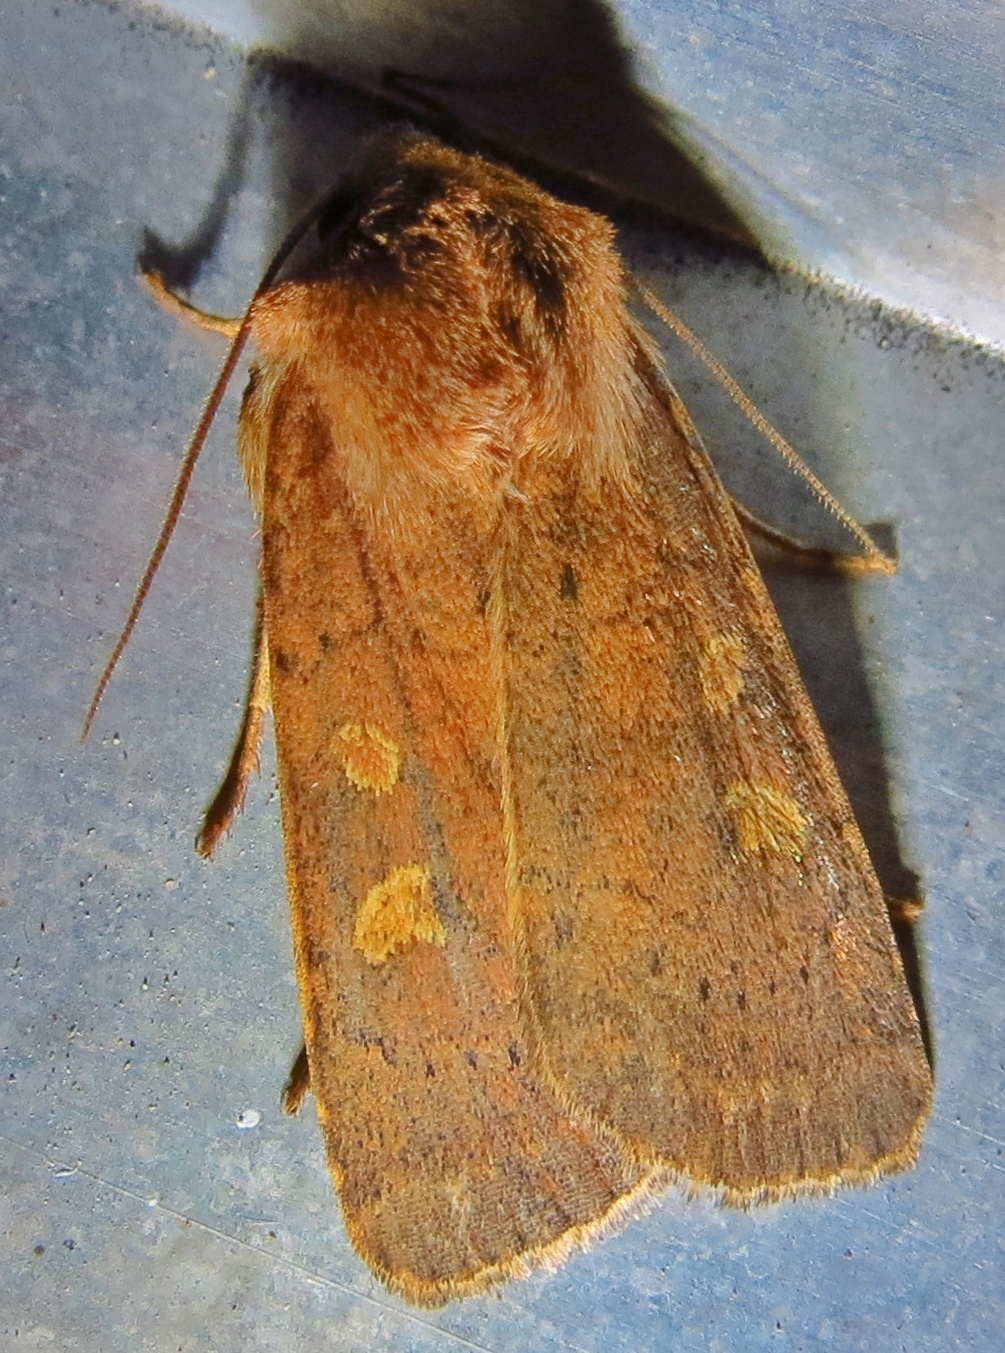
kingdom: Animalia
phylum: Arthropoda
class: Insecta
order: Lepidoptera
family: Noctuidae
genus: Xestia
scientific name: Xestia xanthographa
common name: Square-spot rustic
